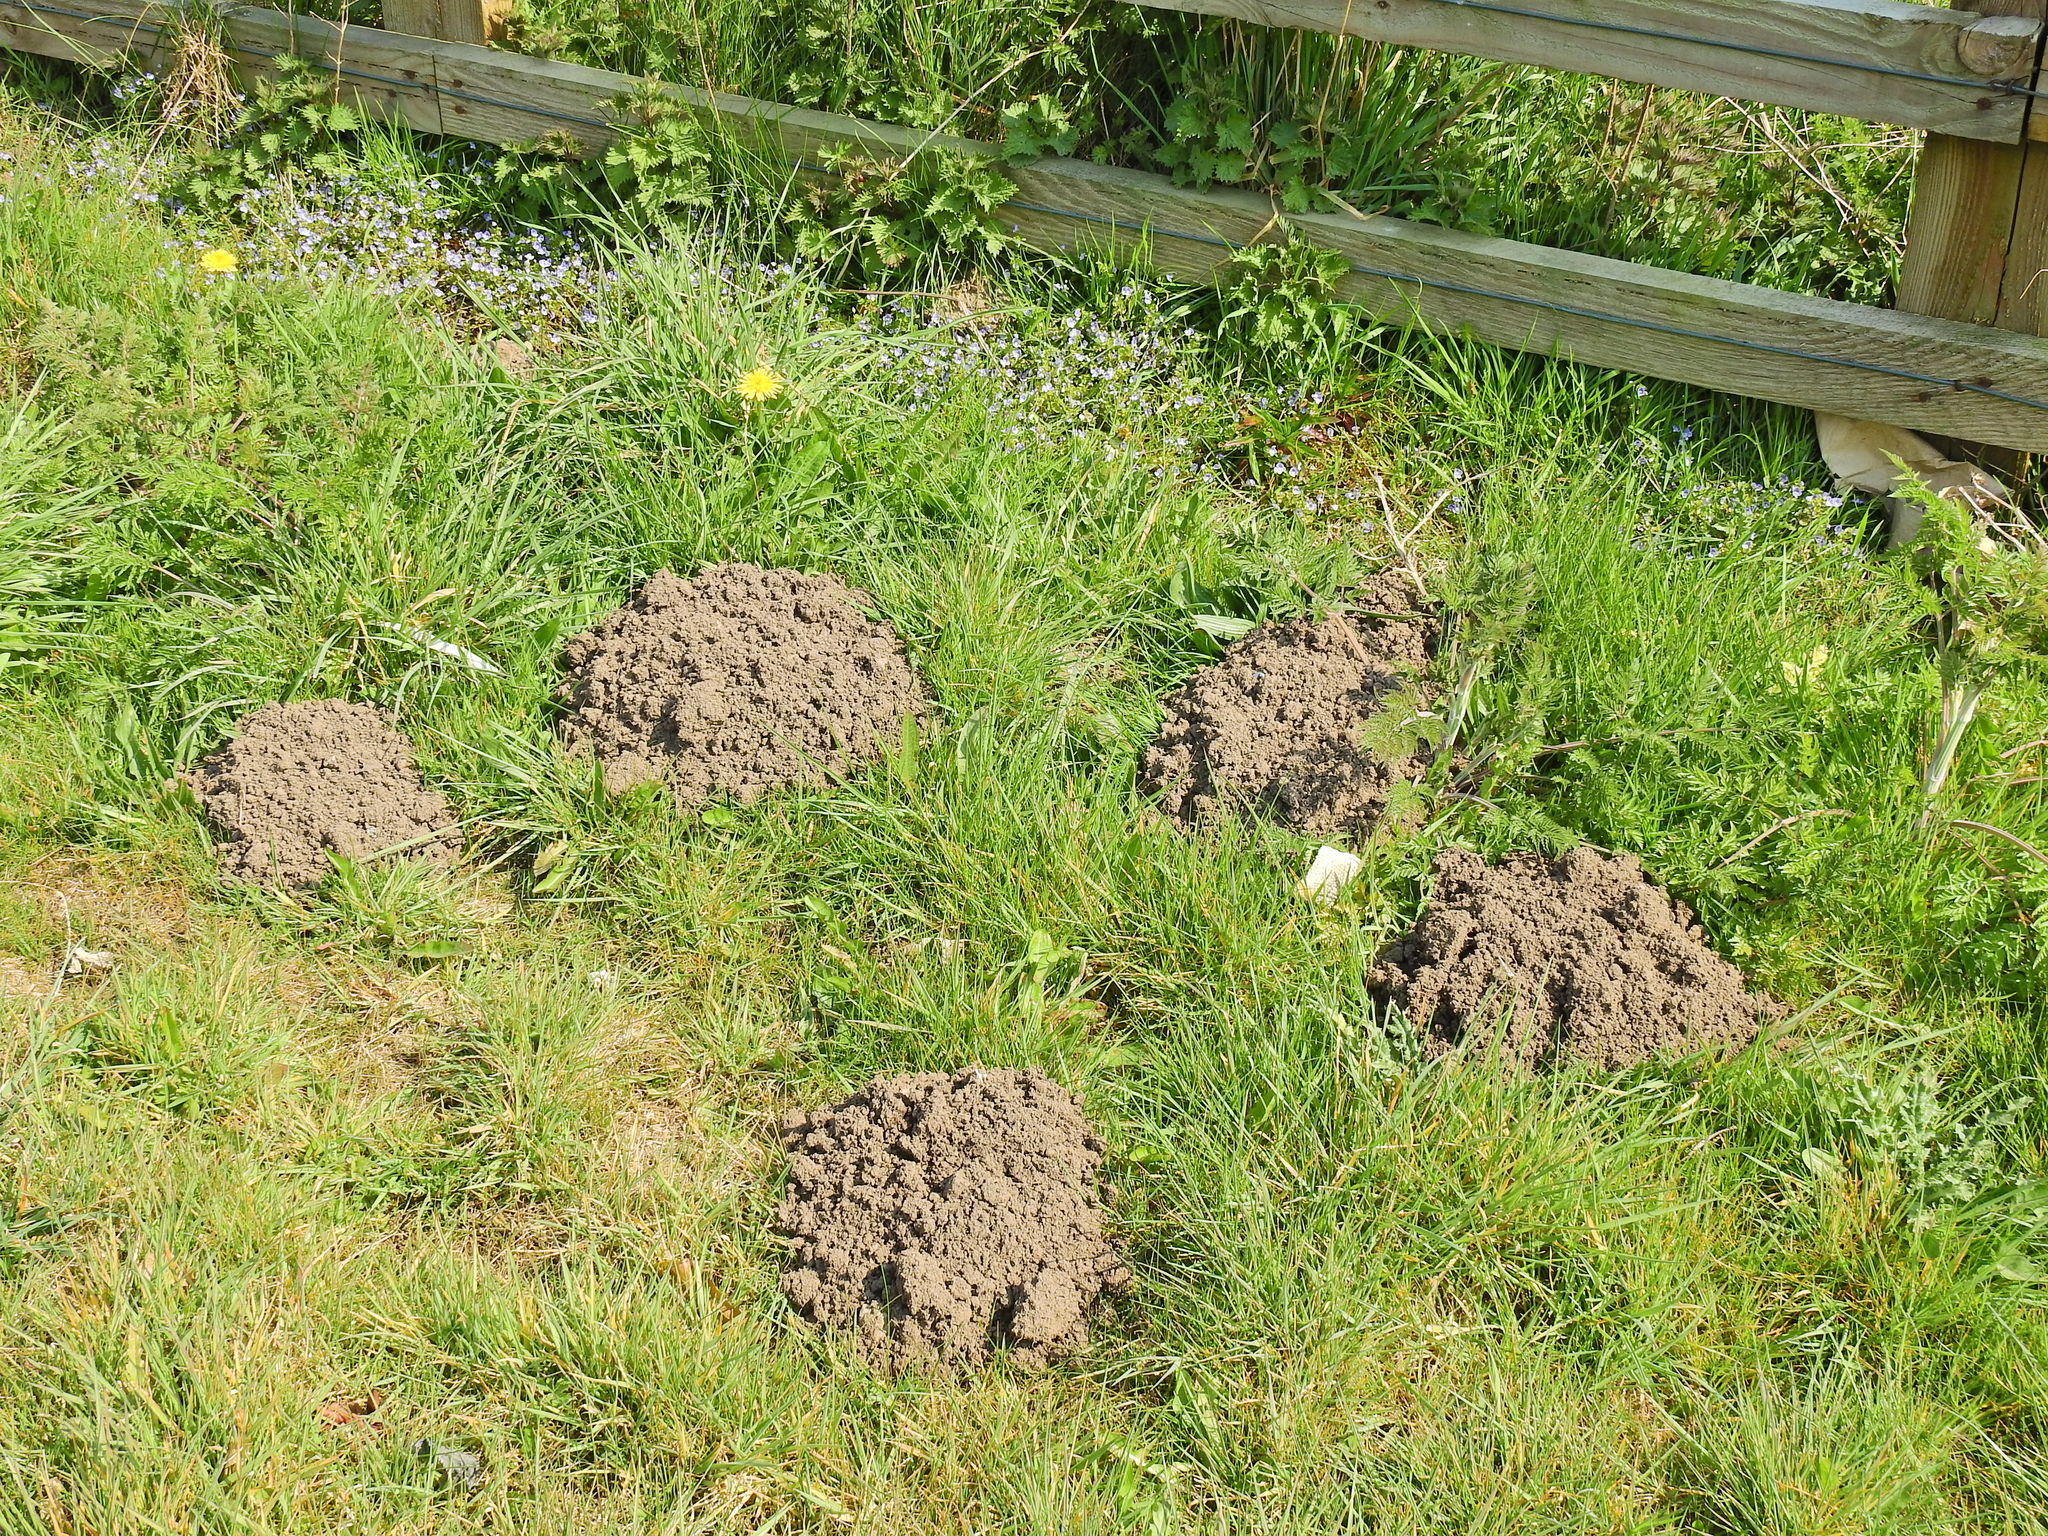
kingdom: Animalia
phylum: Chordata
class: Mammalia
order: Soricomorpha
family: Talpidae
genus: Talpa
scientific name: Talpa europaea
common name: European mole
